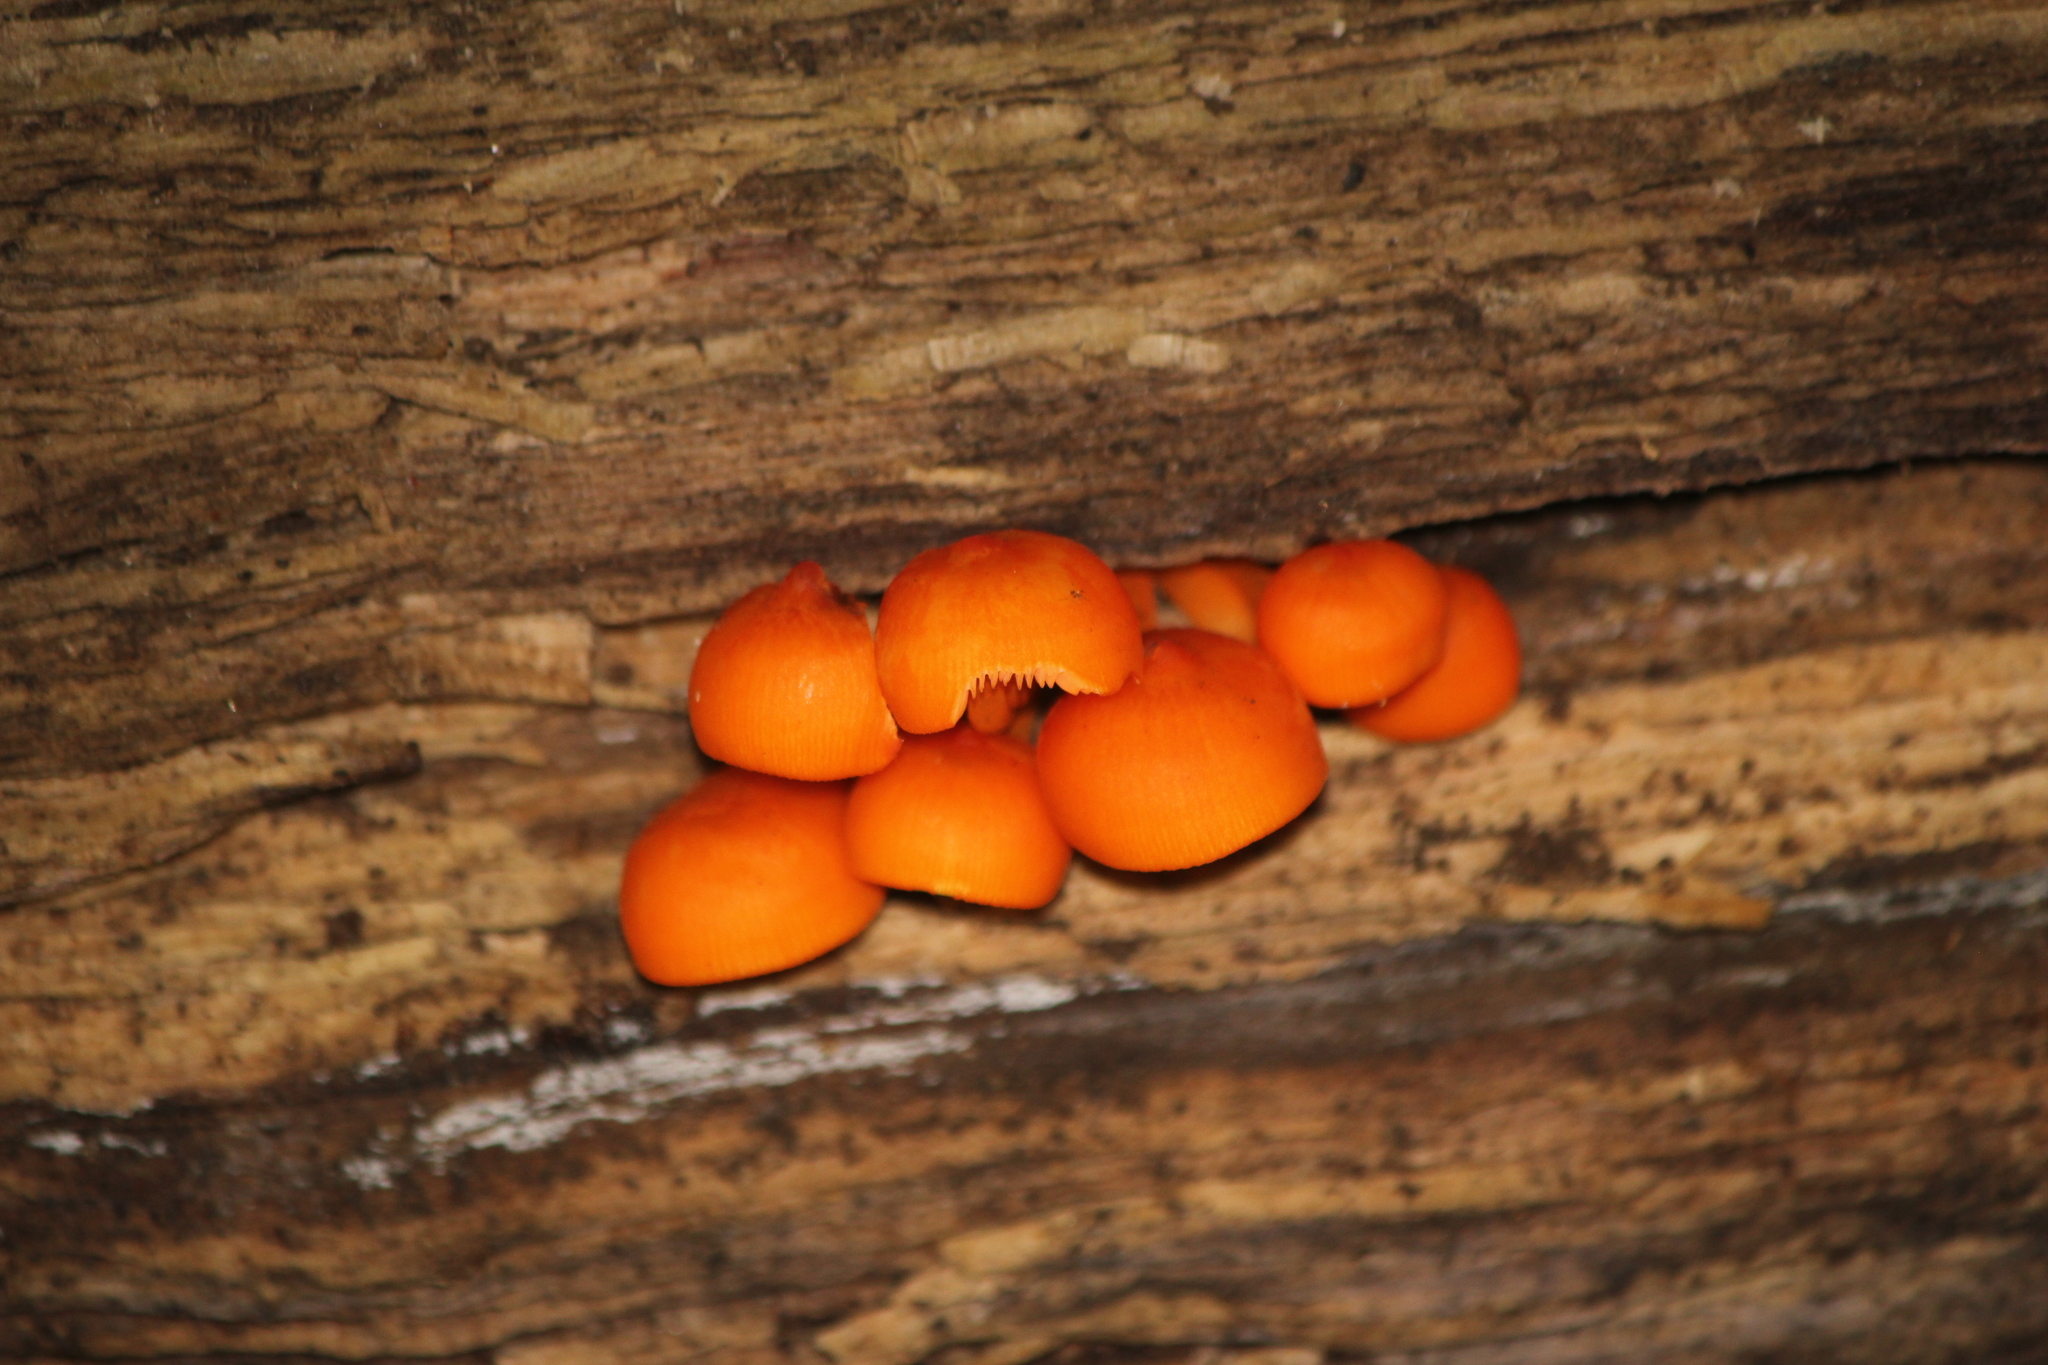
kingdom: Fungi
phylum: Basidiomycota
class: Agaricomycetes
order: Agaricales
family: Mycenaceae
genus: Mycena
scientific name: Mycena leaiana
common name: Orange mycena
